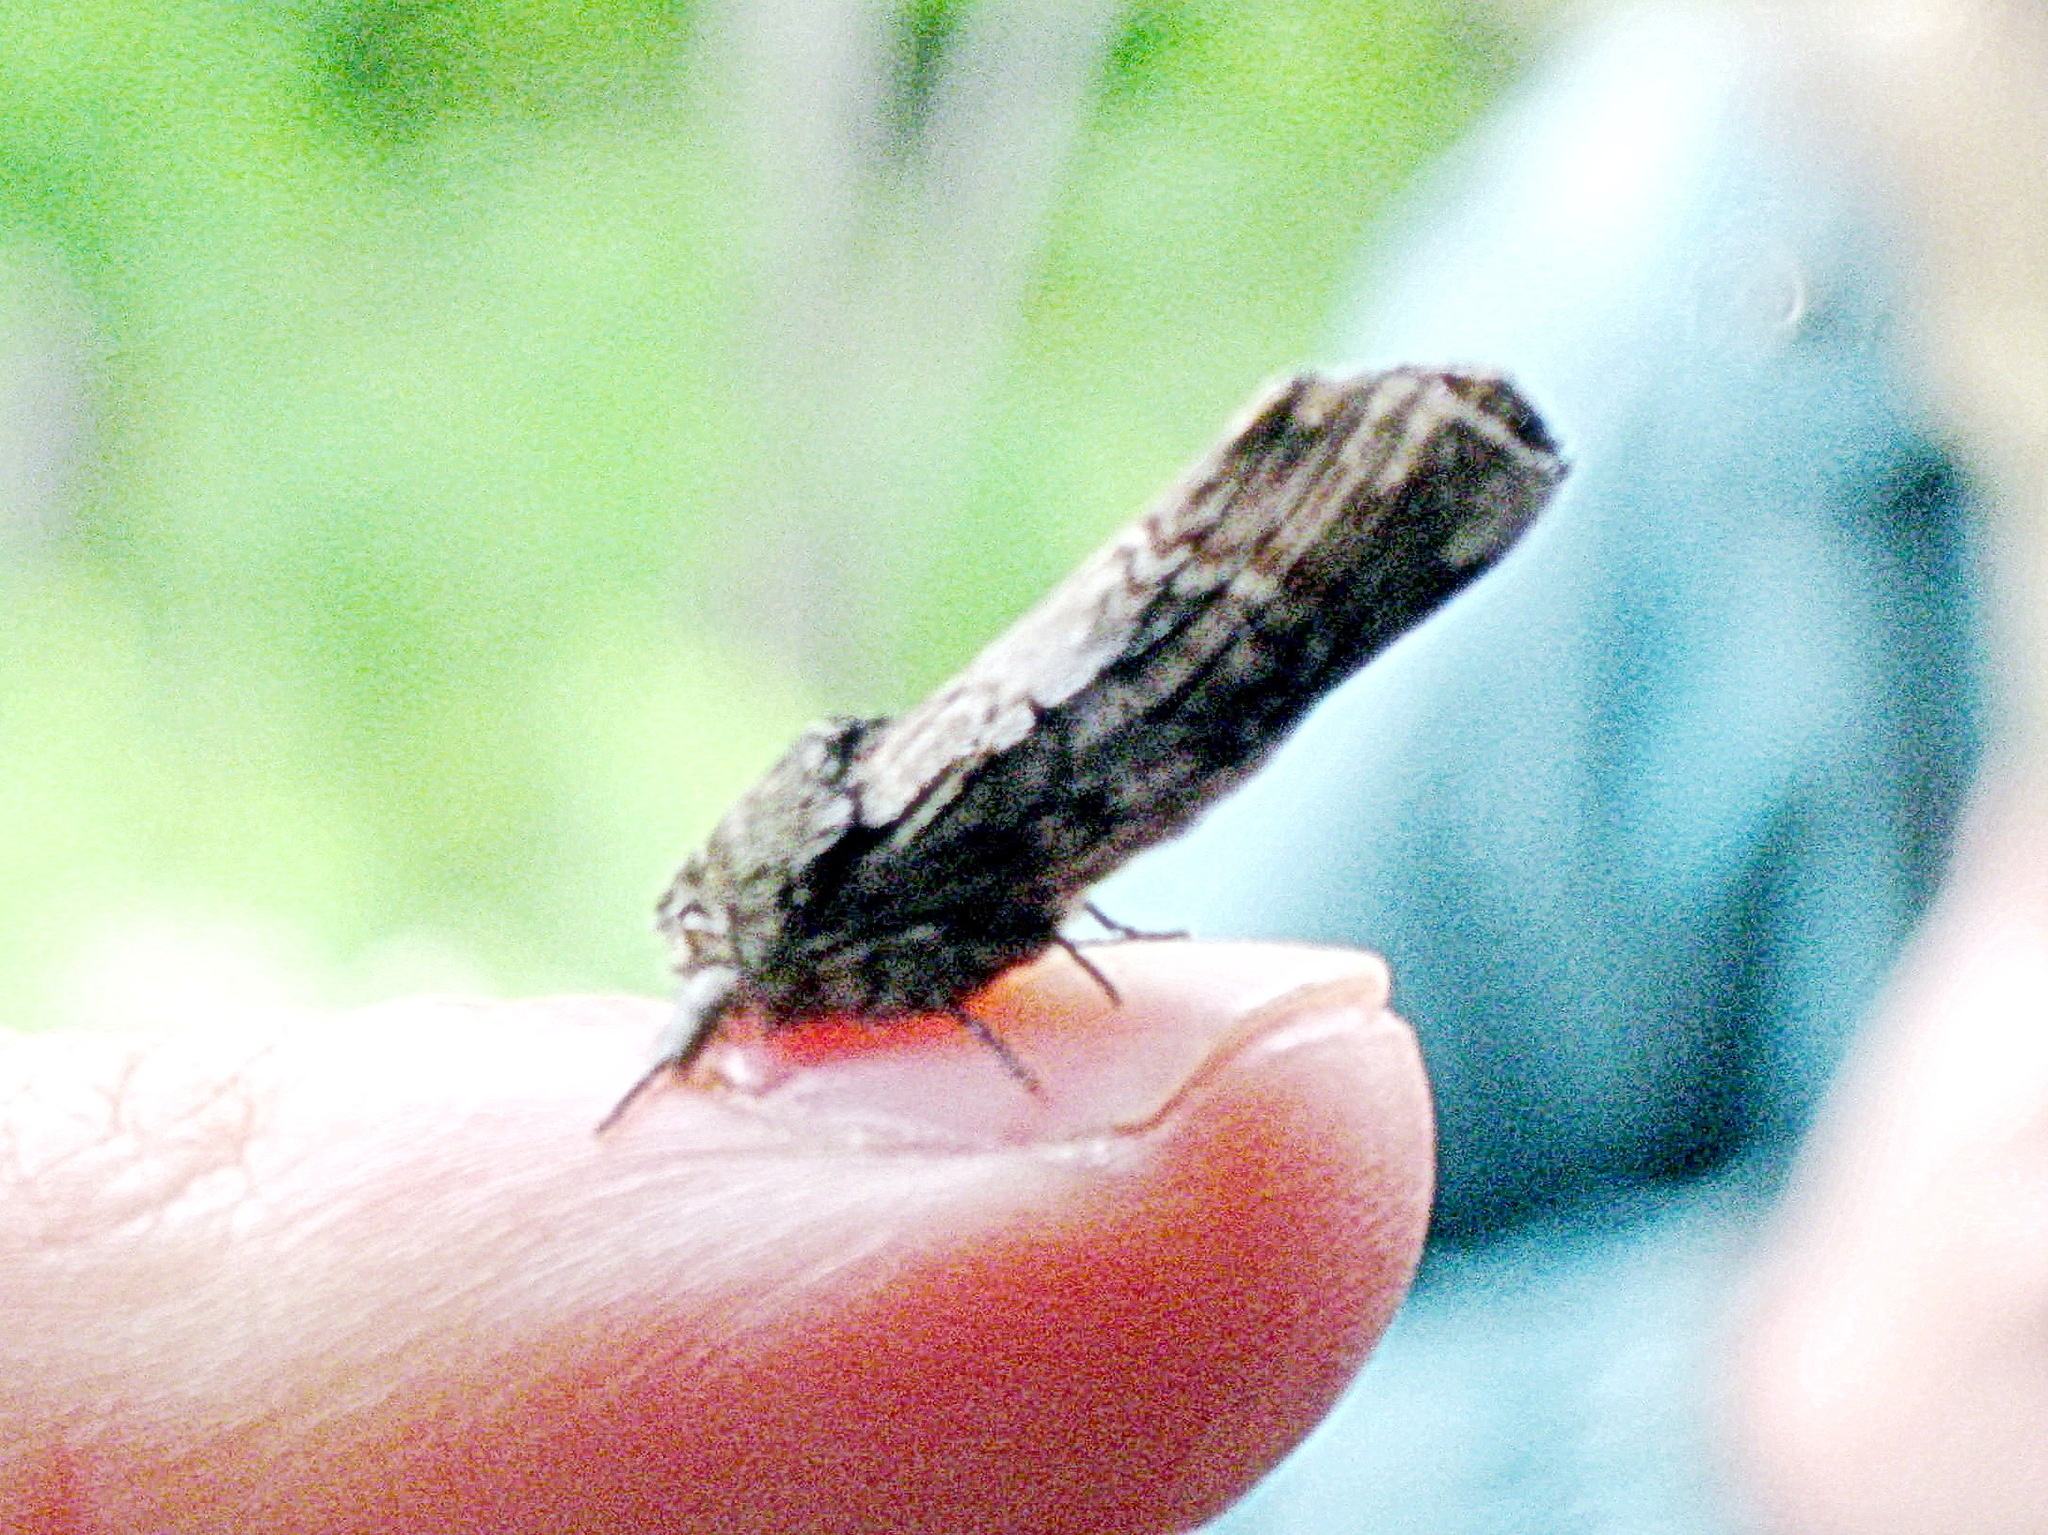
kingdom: Animalia
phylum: Arthropoda
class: Insecta
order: Lepidoptera
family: Notodontidae
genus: Schizura
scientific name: Schizura
